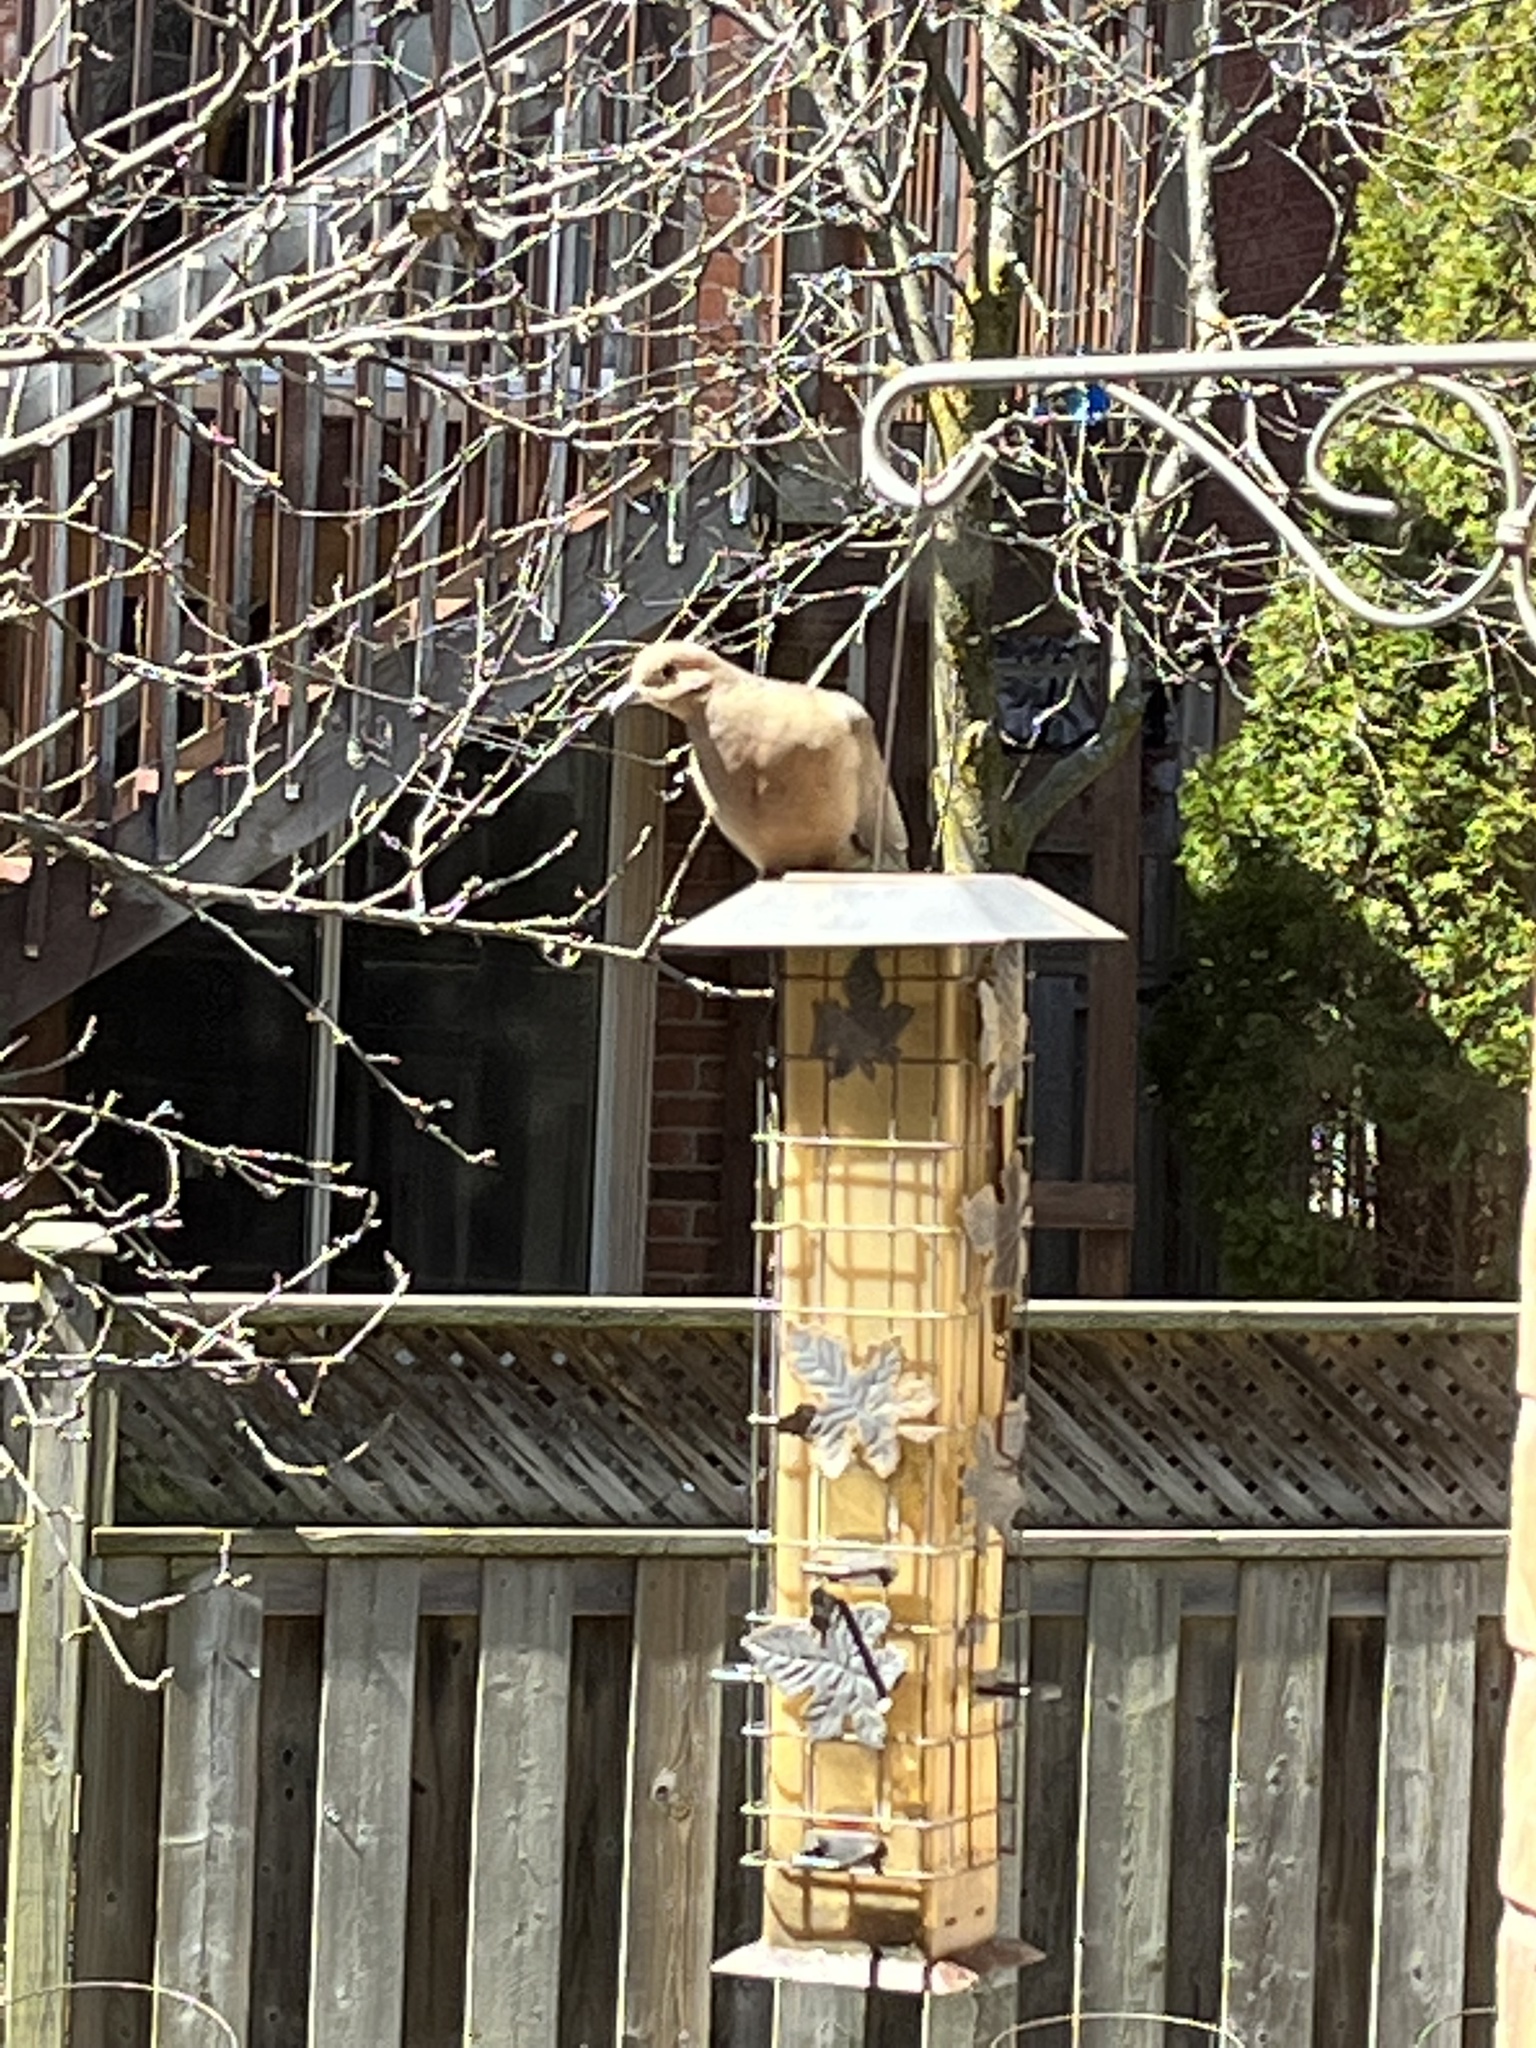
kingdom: Animalia
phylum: Chordata
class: Aves
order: Columbiformes
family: Columbidae
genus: Zenaida
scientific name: Zenaida macroura
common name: Mourning dove
